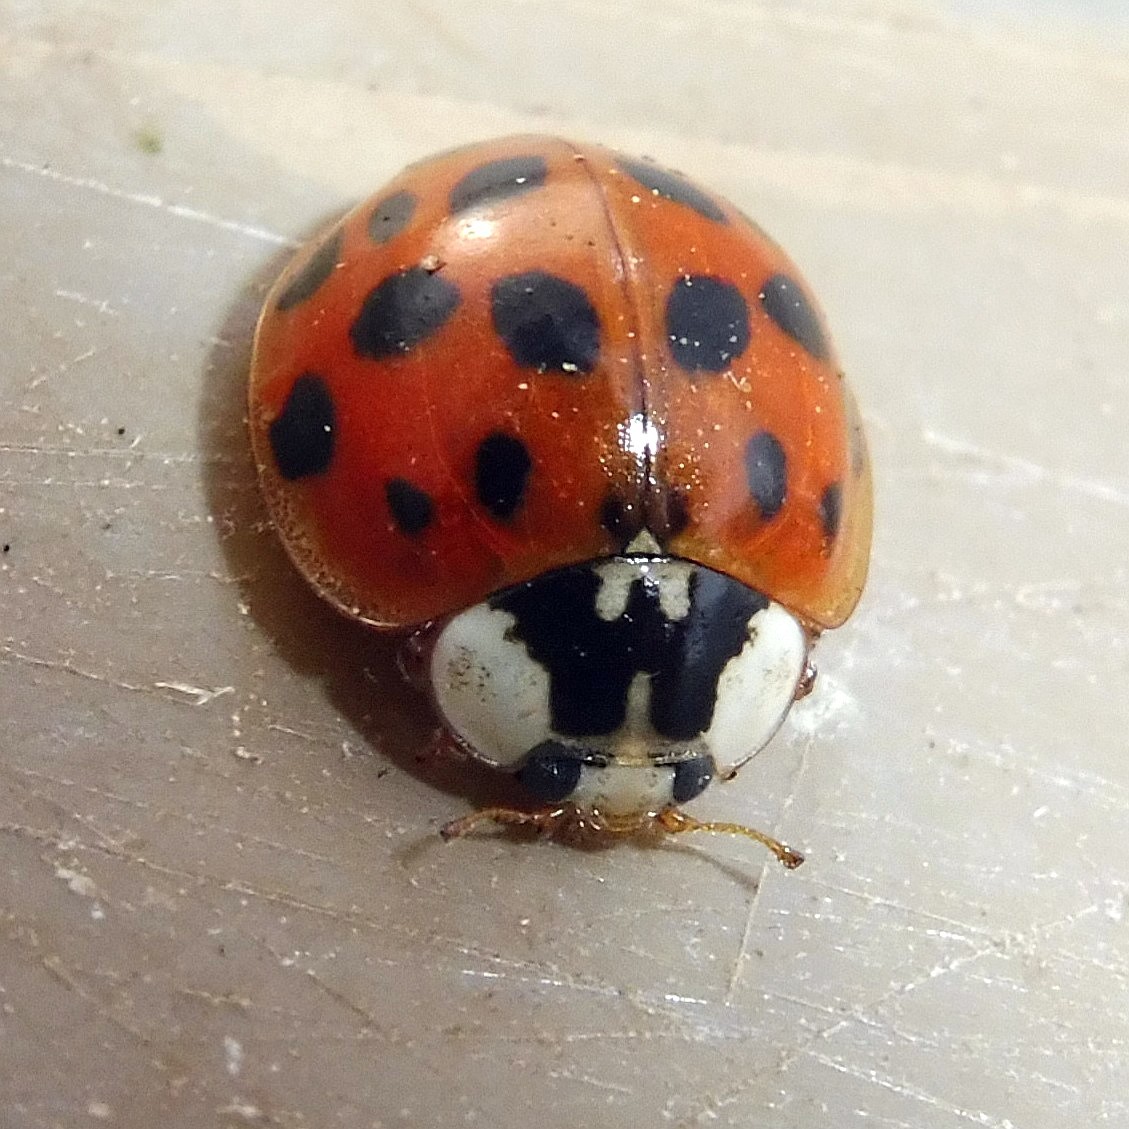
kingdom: Animalia
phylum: Arthropoda
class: Insecta
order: Coleoptera
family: Coccinellidae
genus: Harmonia
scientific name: Harmonia axyridis
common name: Harlequin ladybird
